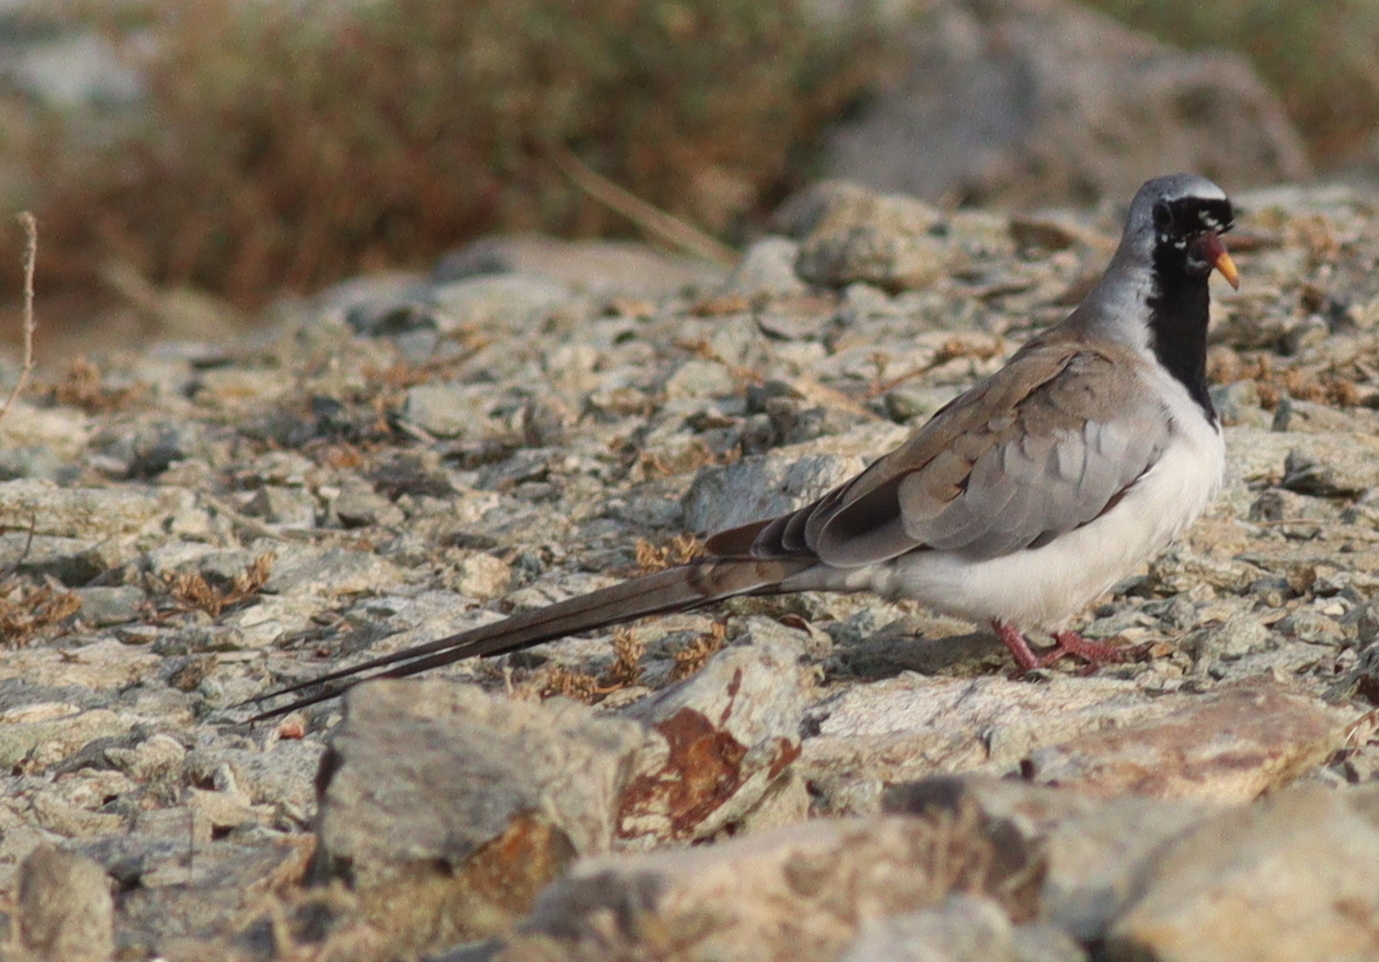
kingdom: Animalia
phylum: Chordata
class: Aves
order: Columbiformes
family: Columbidae
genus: Oena
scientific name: Oena capensis
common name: Namaqua dove
